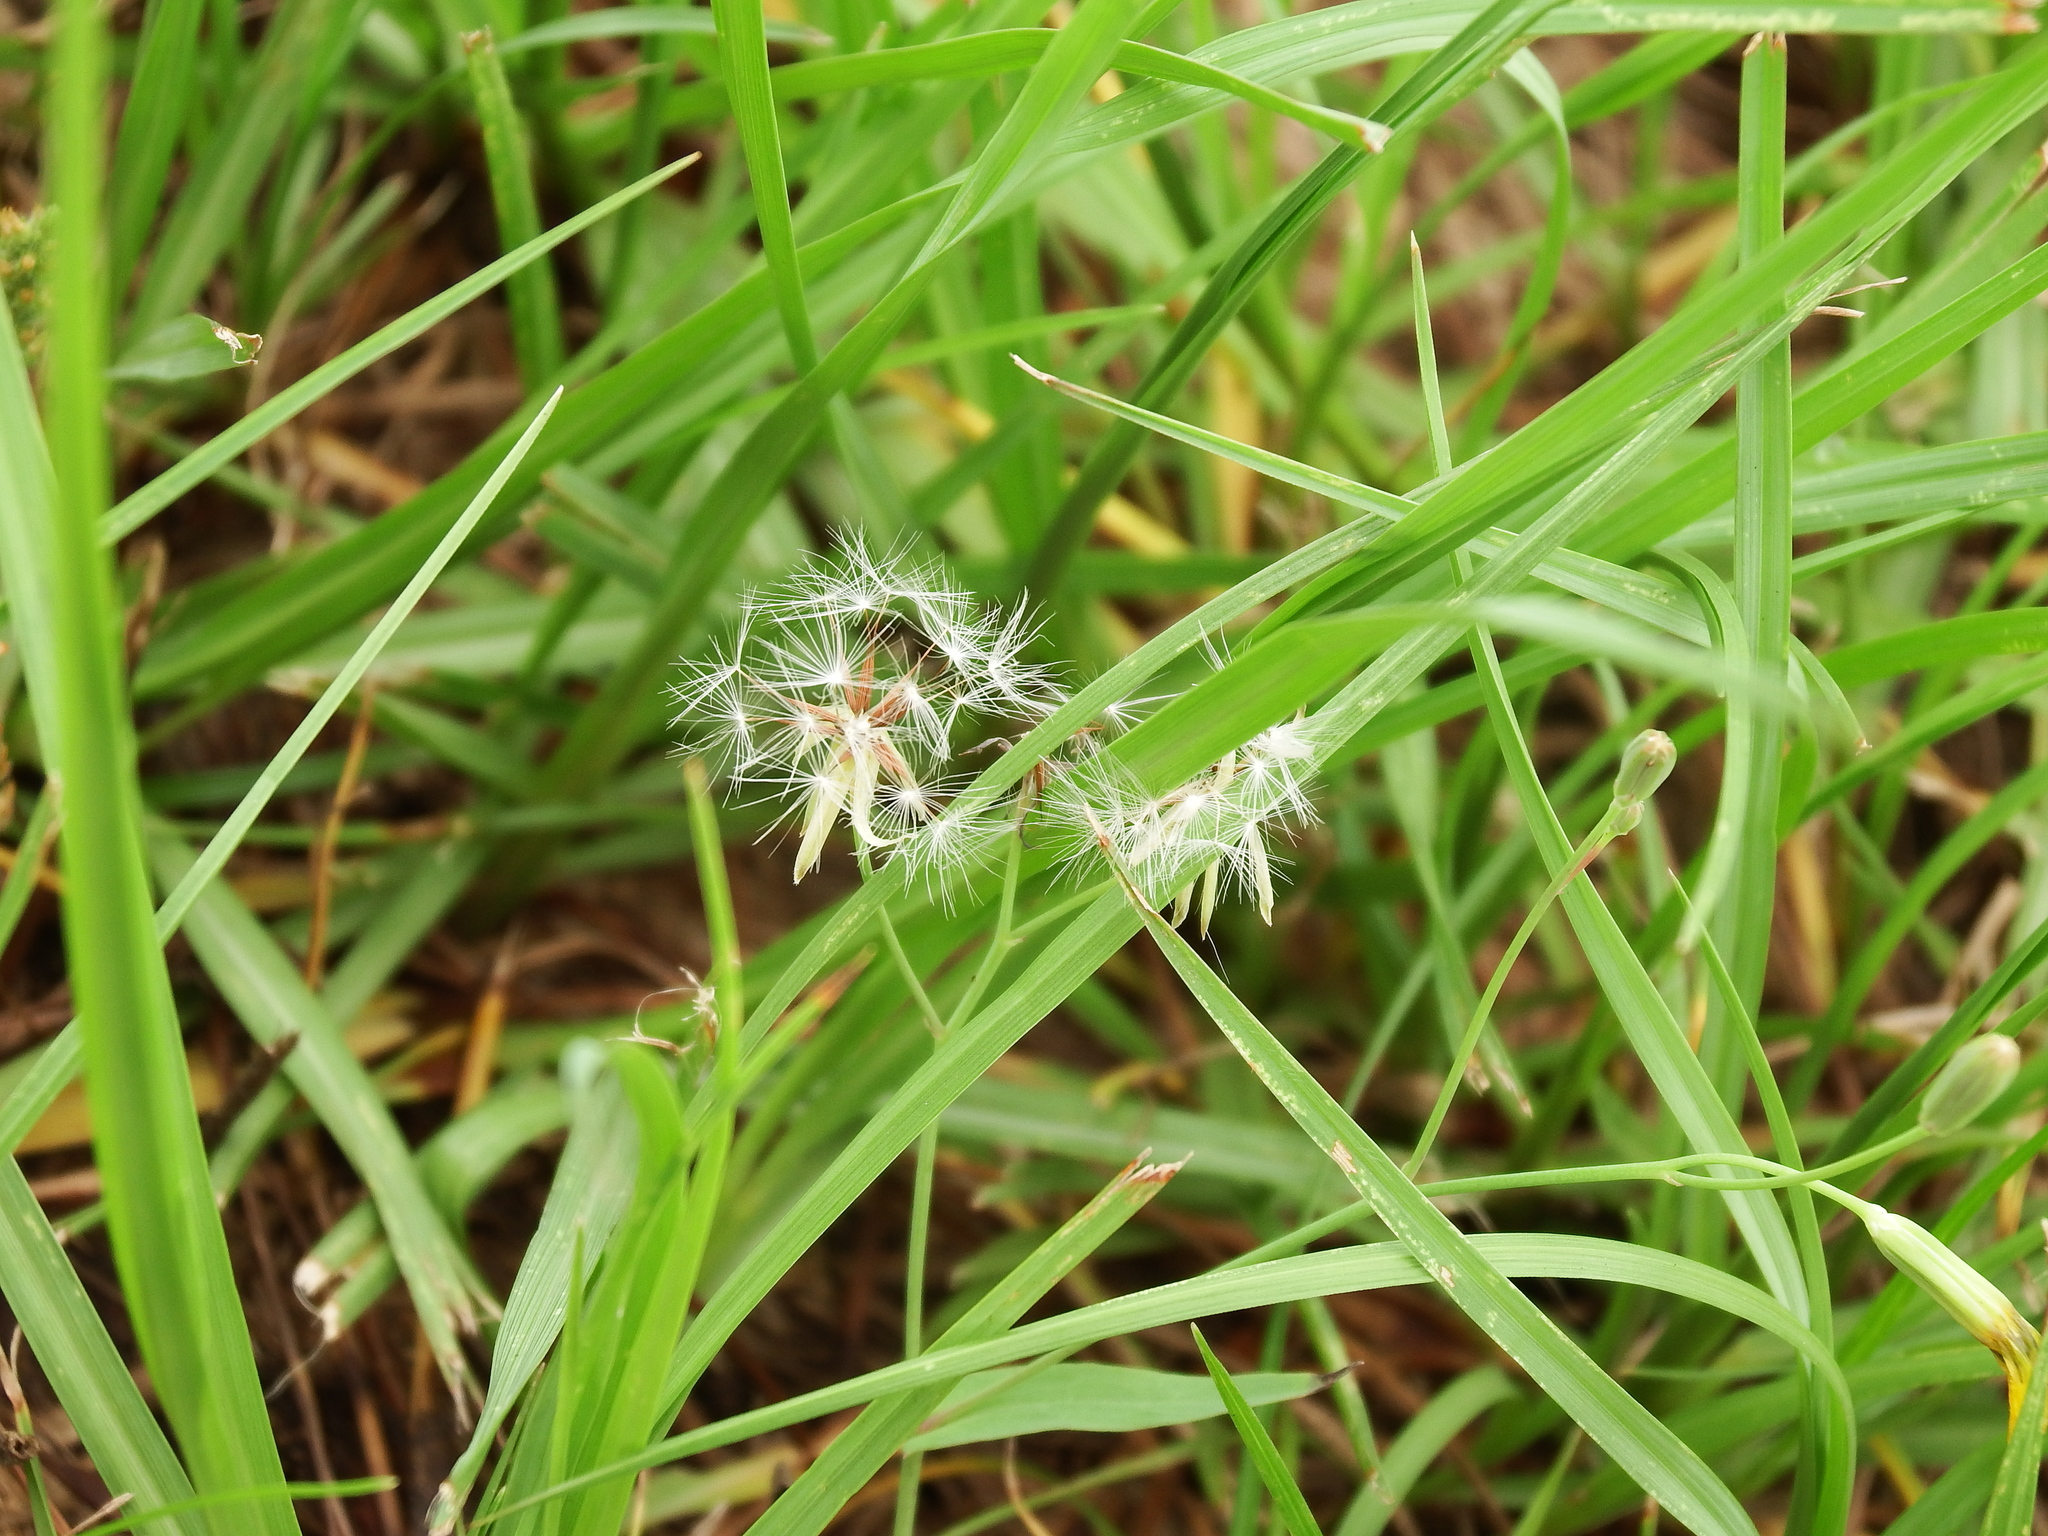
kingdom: Plantae
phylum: Tracheophyta
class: Magnoliopsida
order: Asterales
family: Asteraceae
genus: Youngia
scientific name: Youngia japonica
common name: Oriental false hawksbeard
